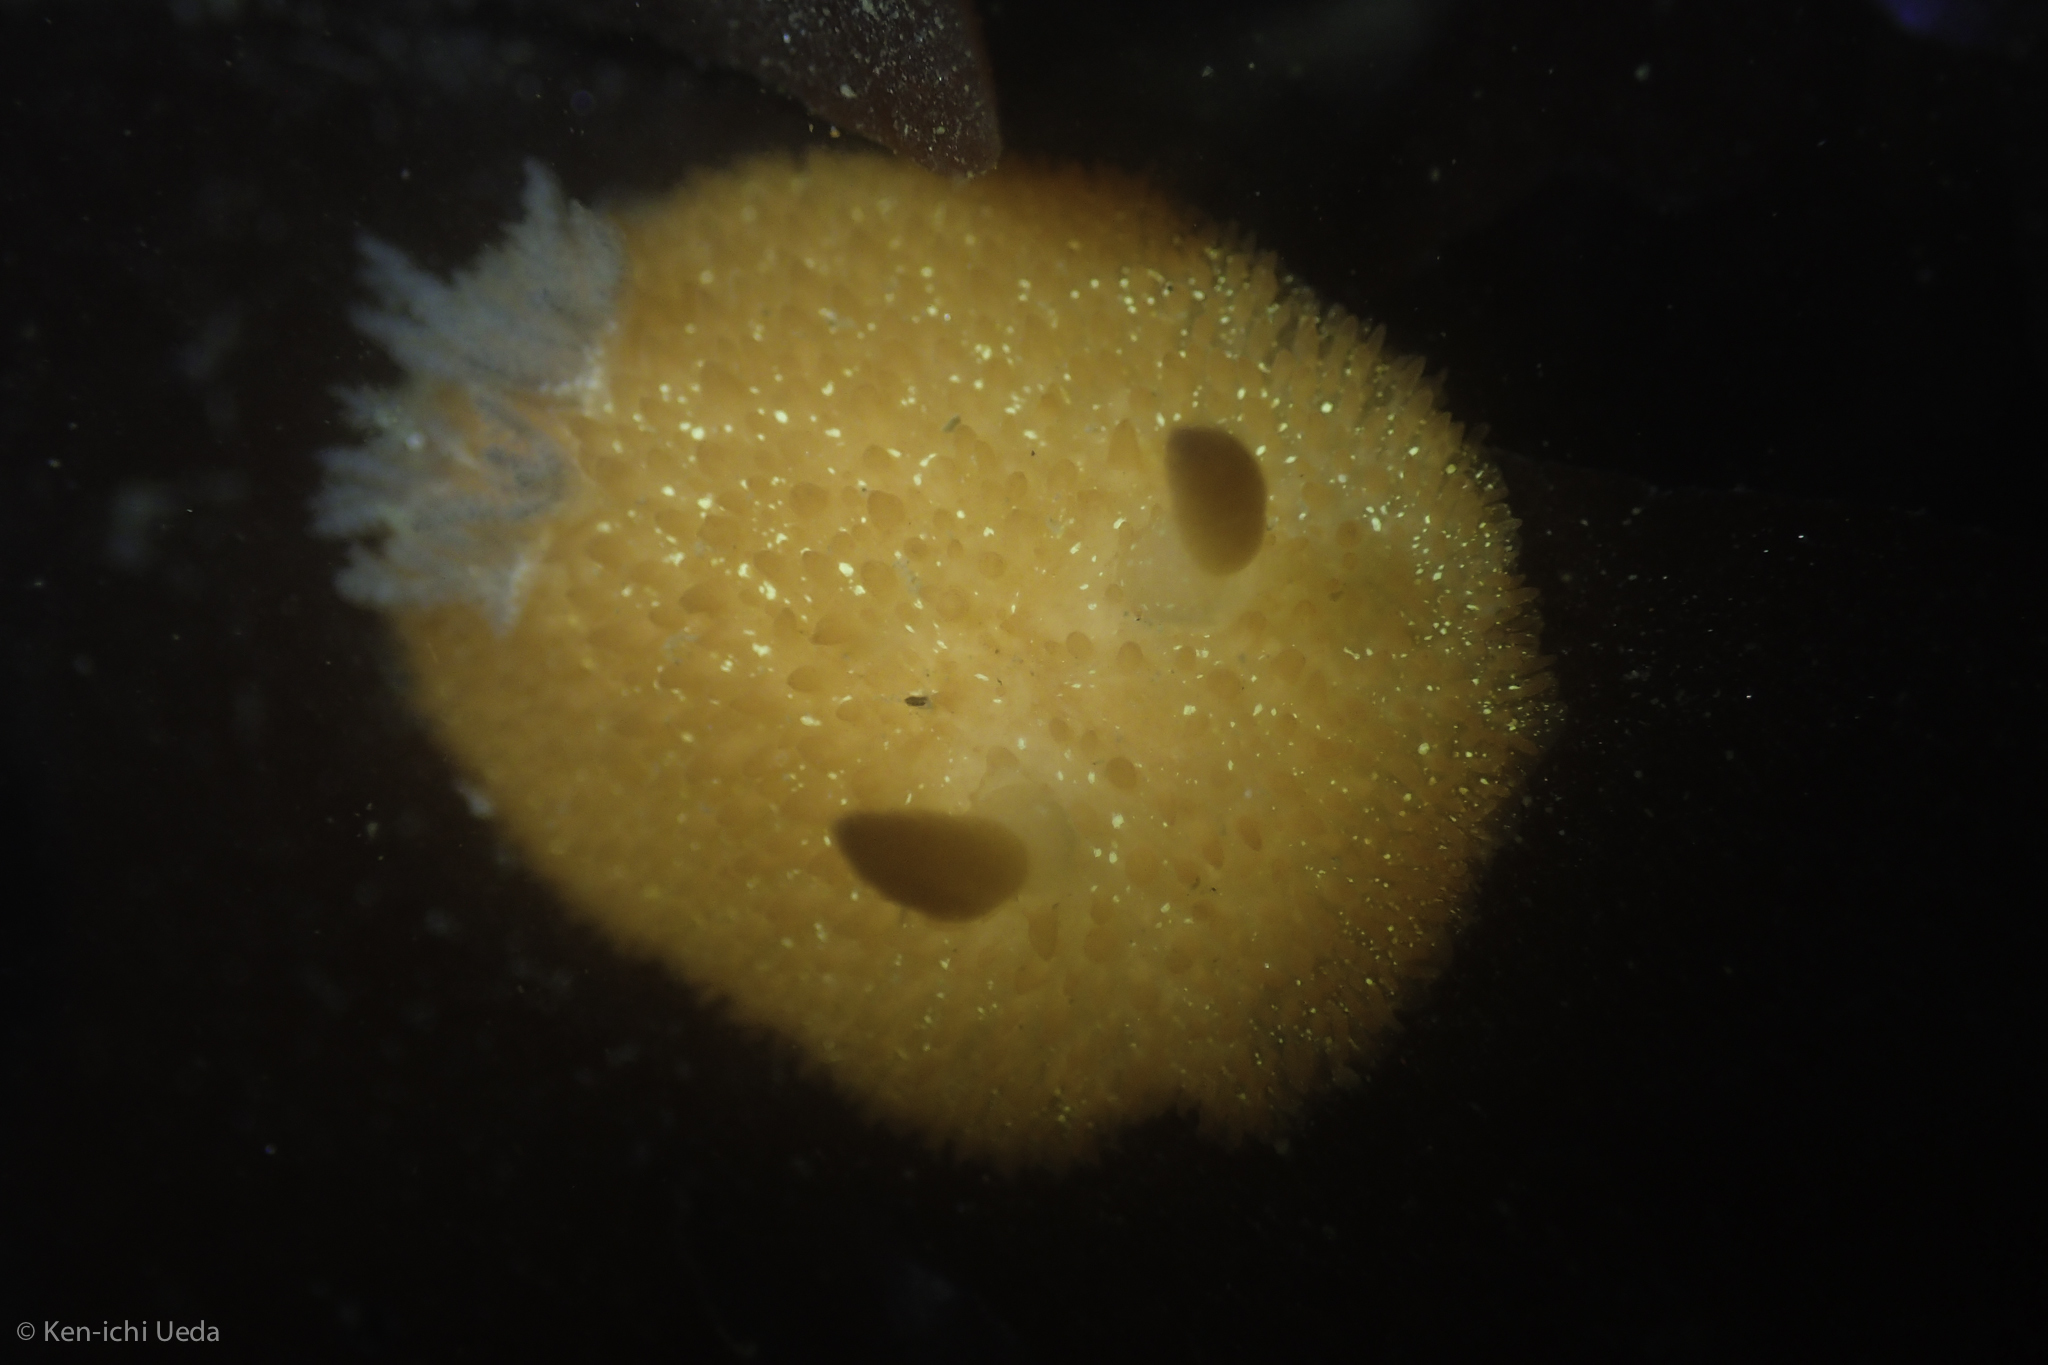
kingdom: Animalia
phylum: Mollusca
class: Gastropoda
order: Nudibranchia
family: Onchidorididae
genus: Acanthodoris
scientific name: Acanthodoris lutea
